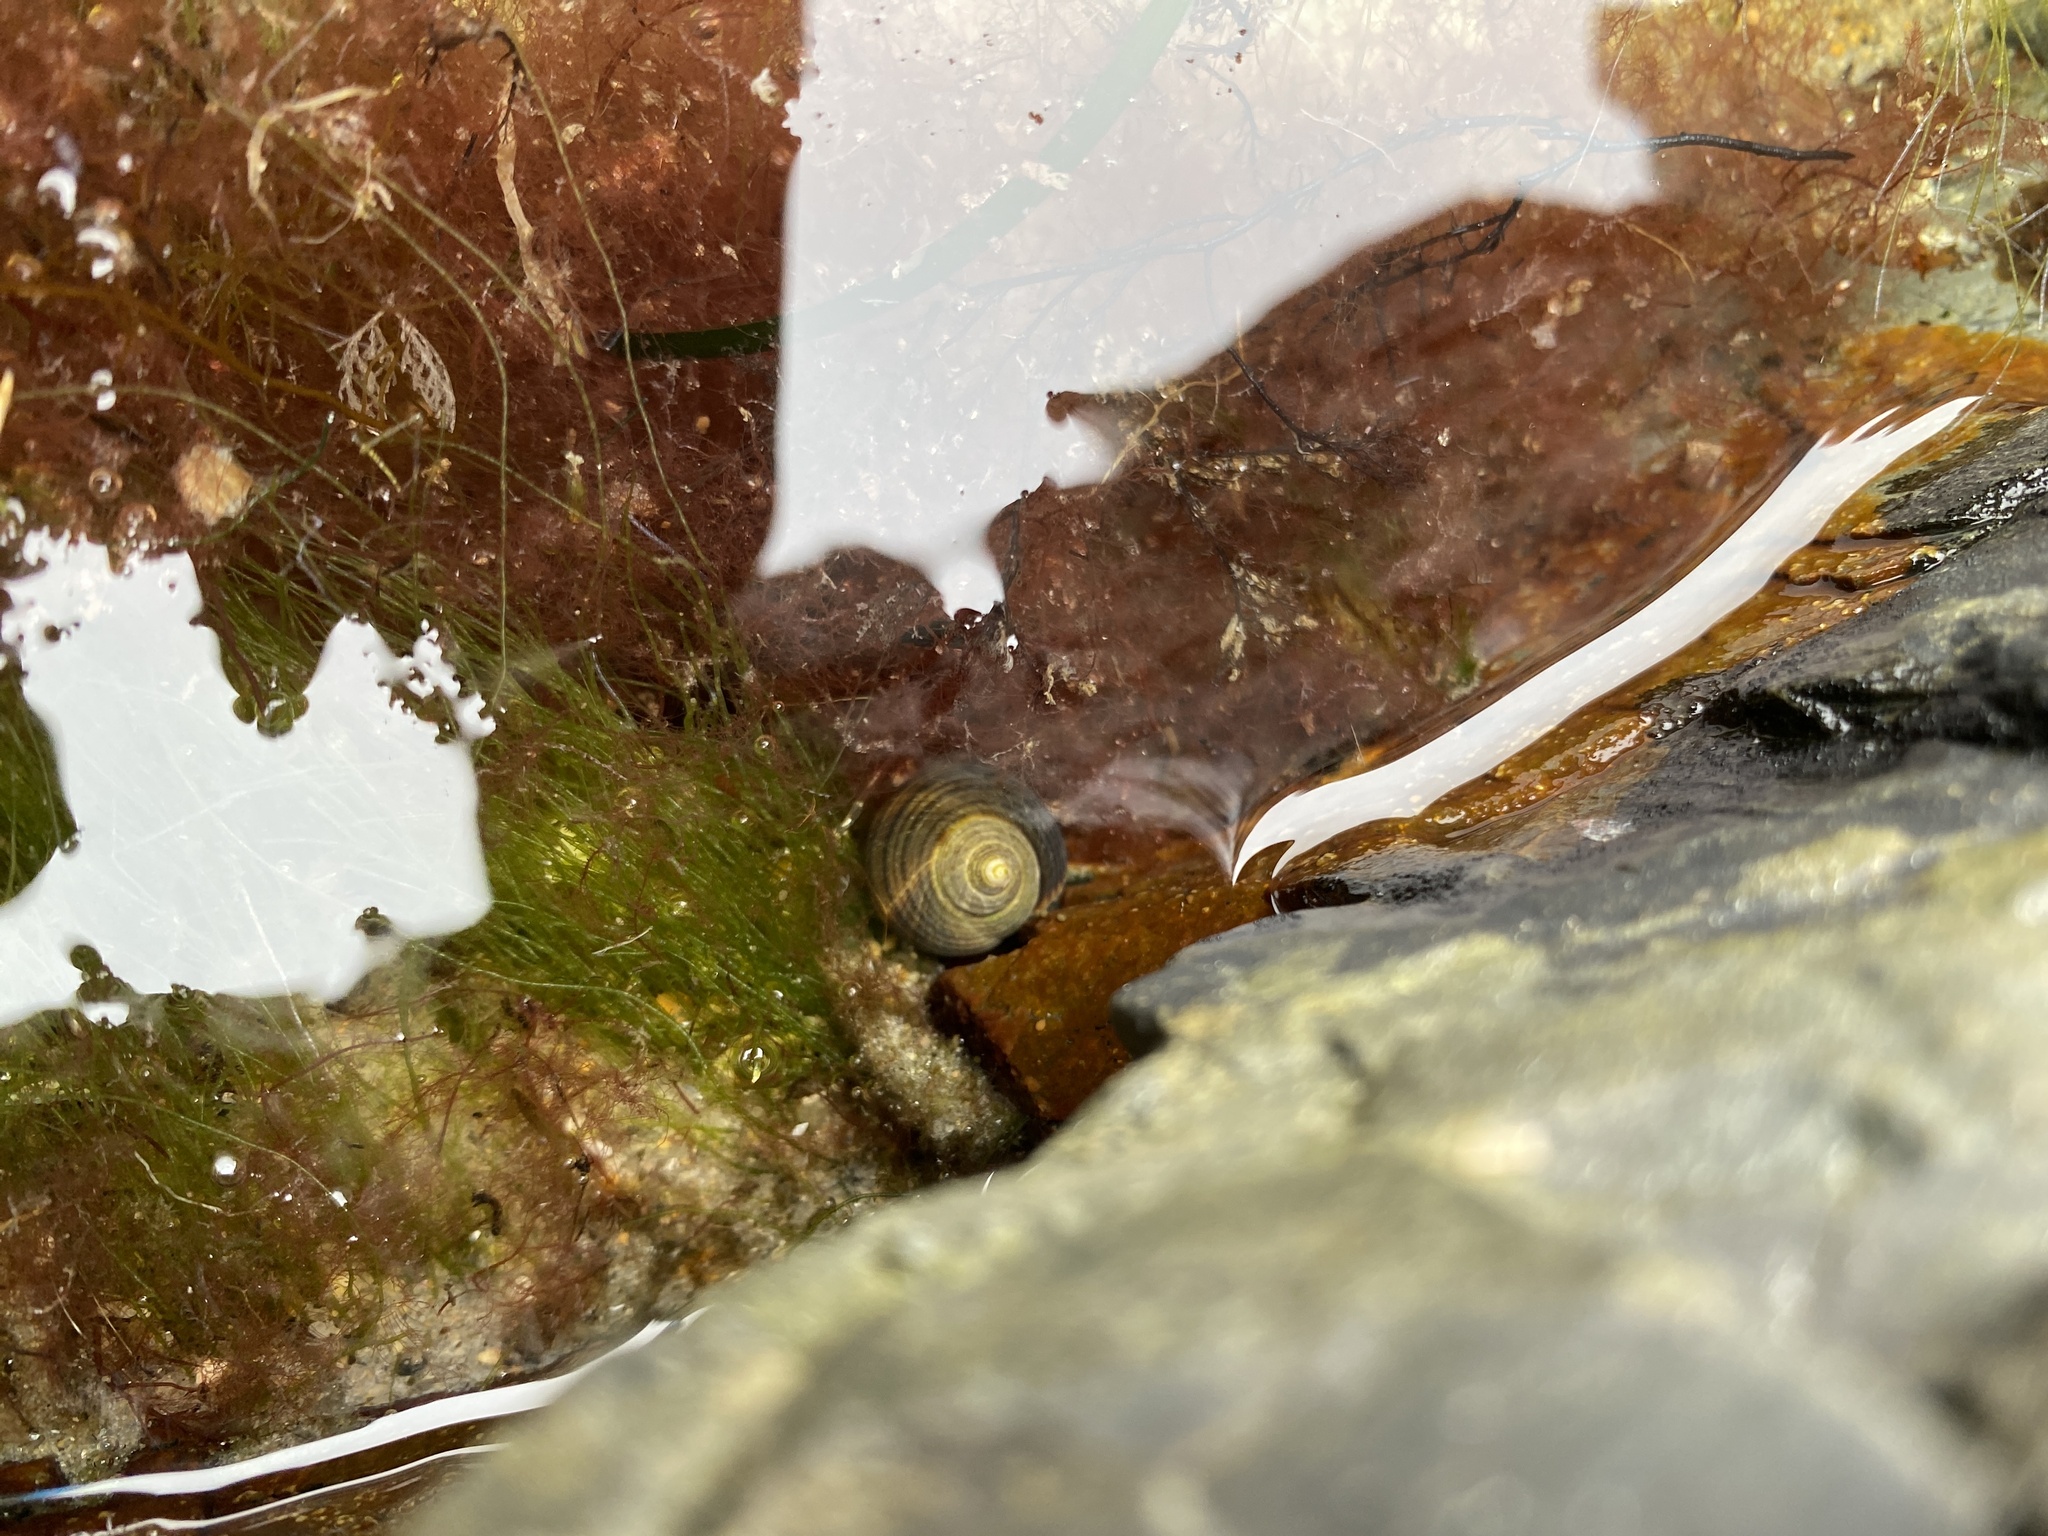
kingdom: Animalia
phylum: Mollusca
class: Gastropoda
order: Littorinimorpha
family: Littorinidae
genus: Littorina
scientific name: Littorina littorea
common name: Common periwinkle
